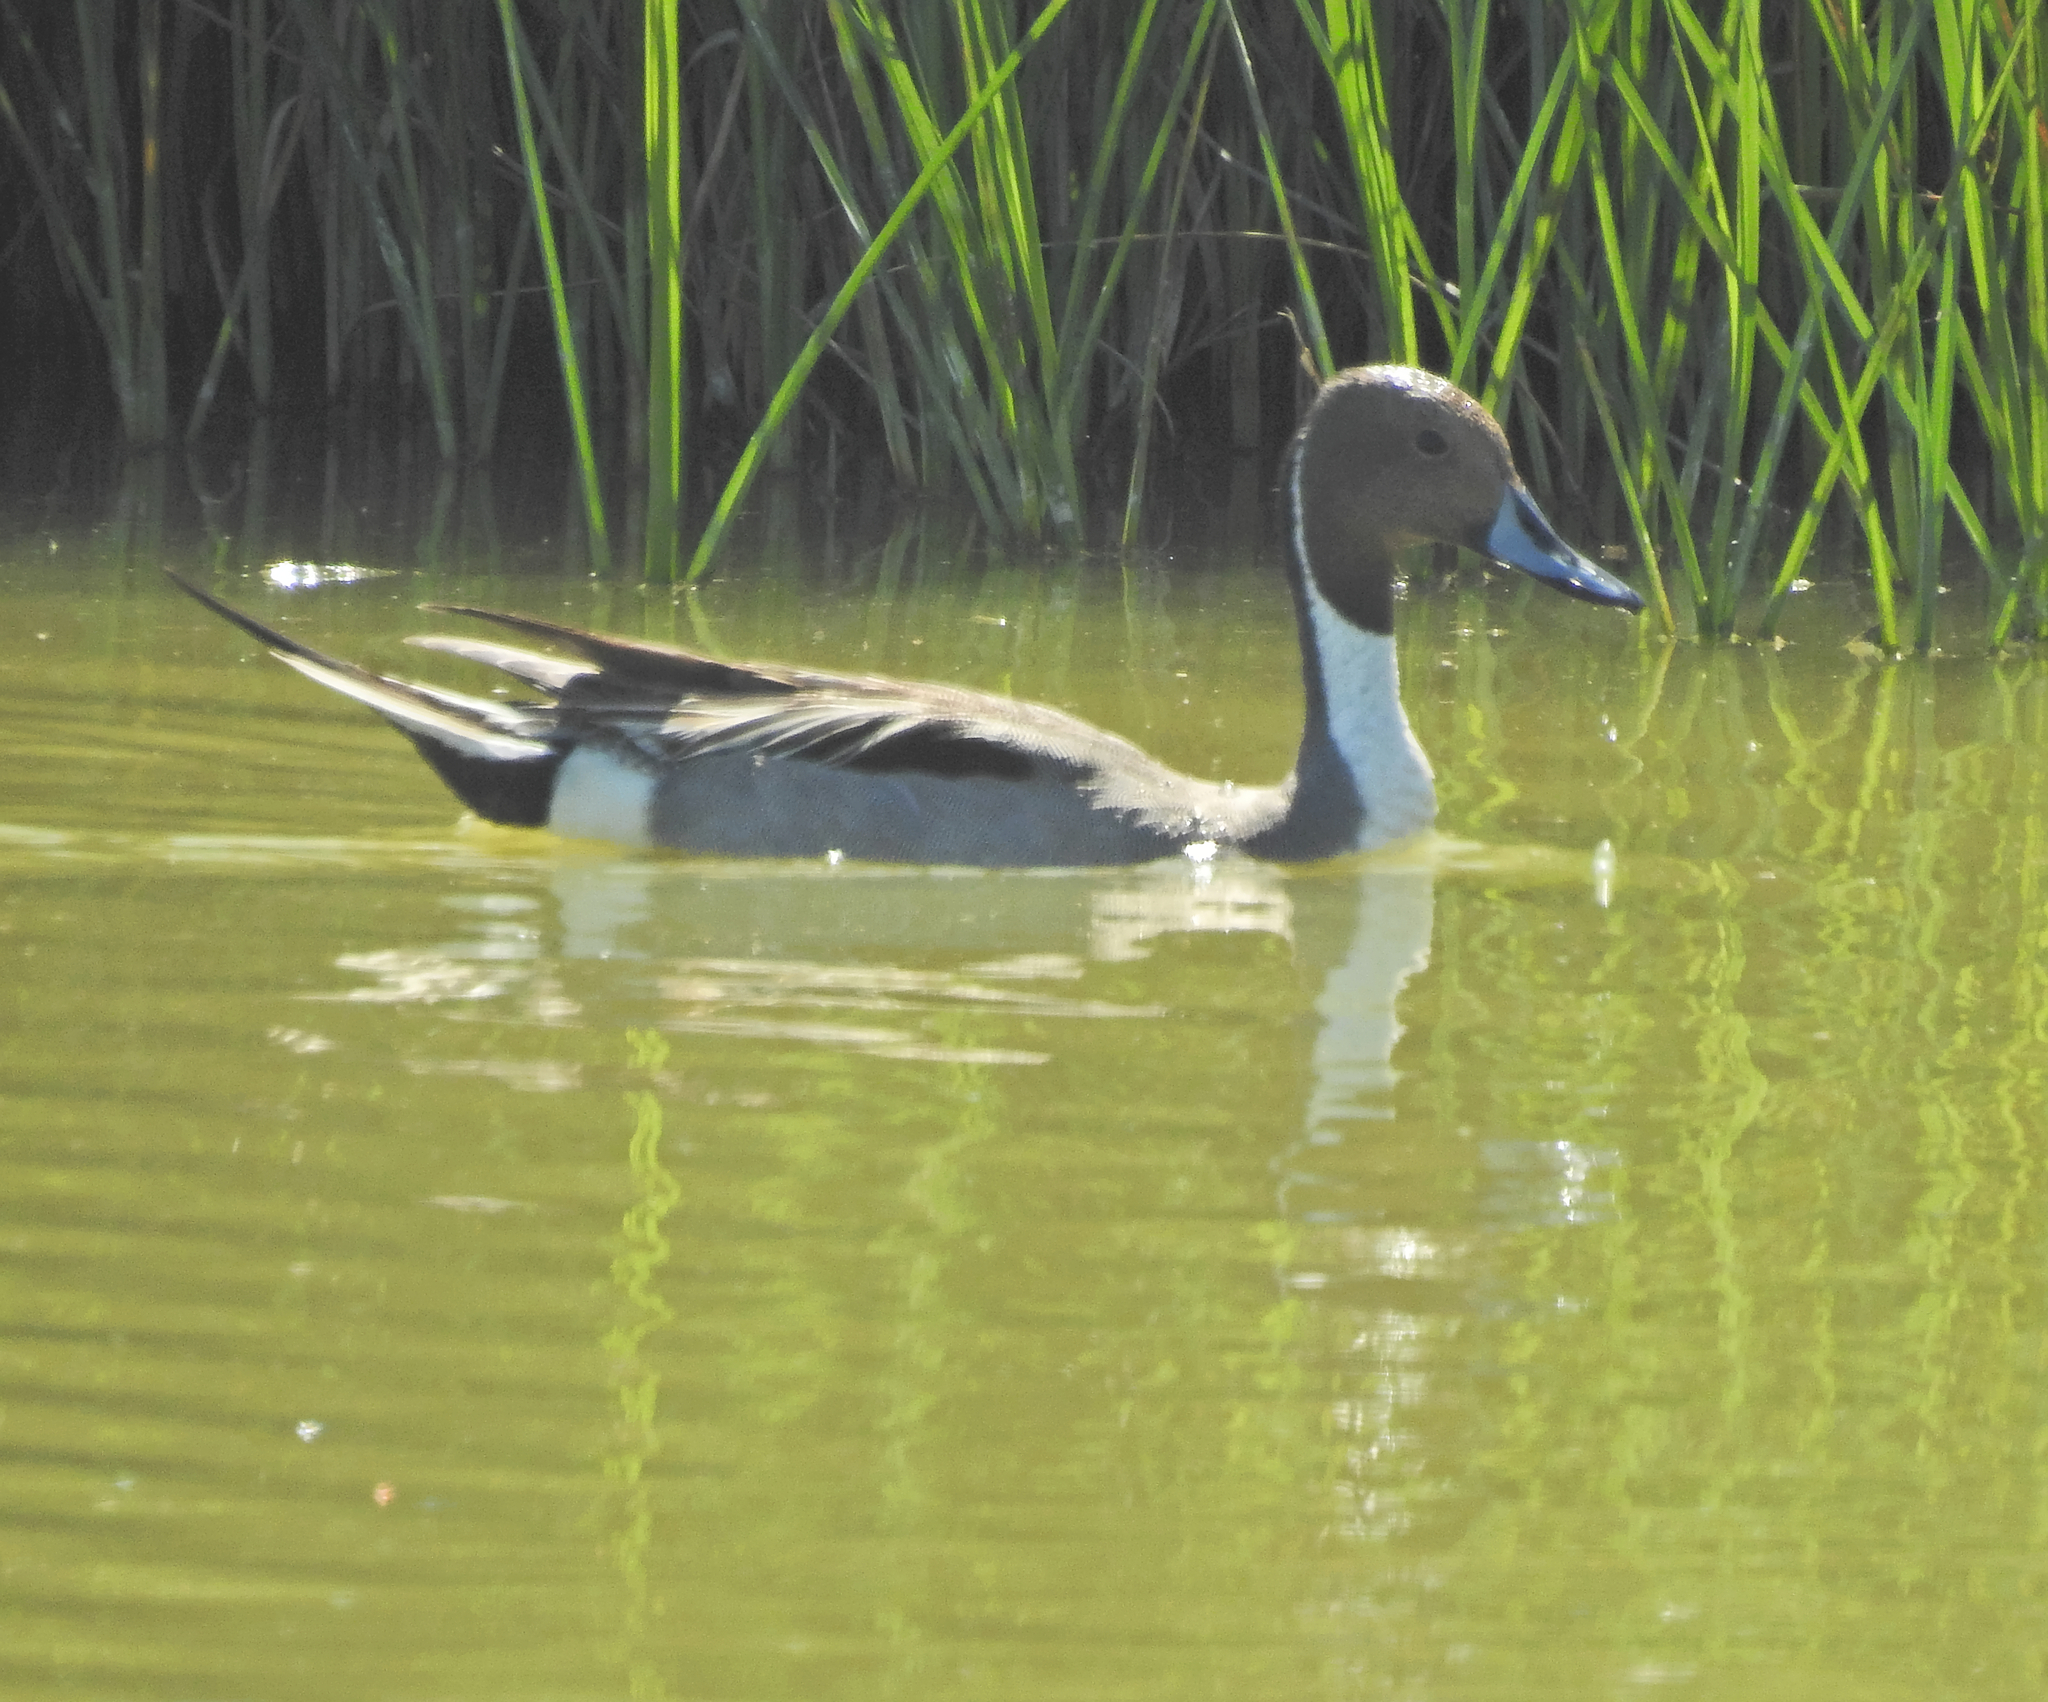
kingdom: Animalia
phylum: Chordata
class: Aves
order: Anseriformes
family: Anatidae
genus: Anas
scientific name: Anas acuta
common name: Northern pintail
